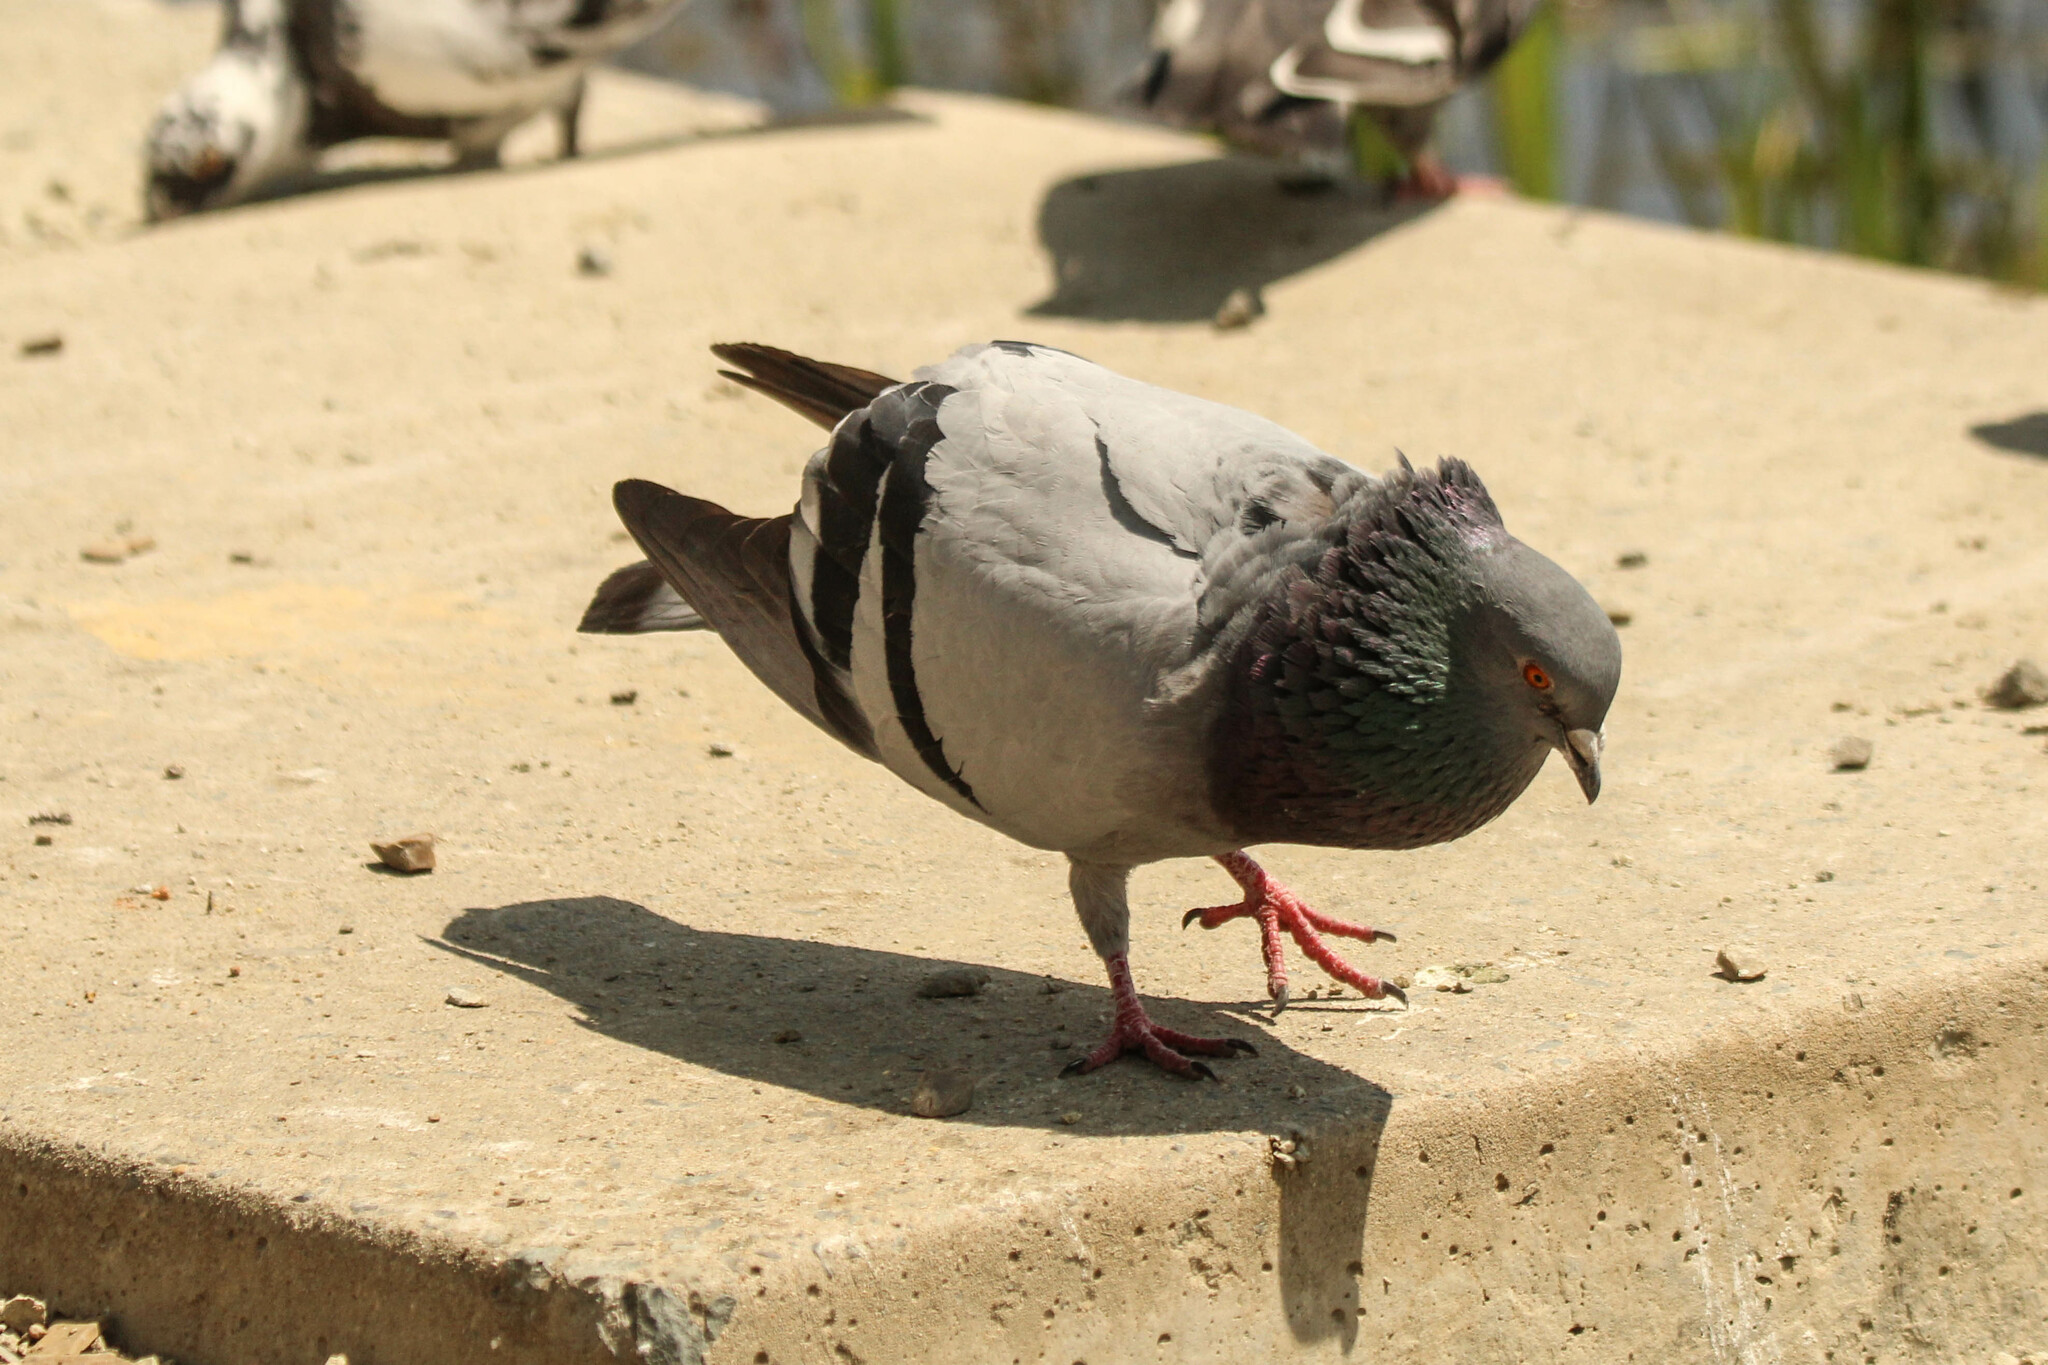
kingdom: Animalia
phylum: Chordata
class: Aves
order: Columbiformes
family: Columbidae
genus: Columba
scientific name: Columba livia
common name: Rock pigeon
